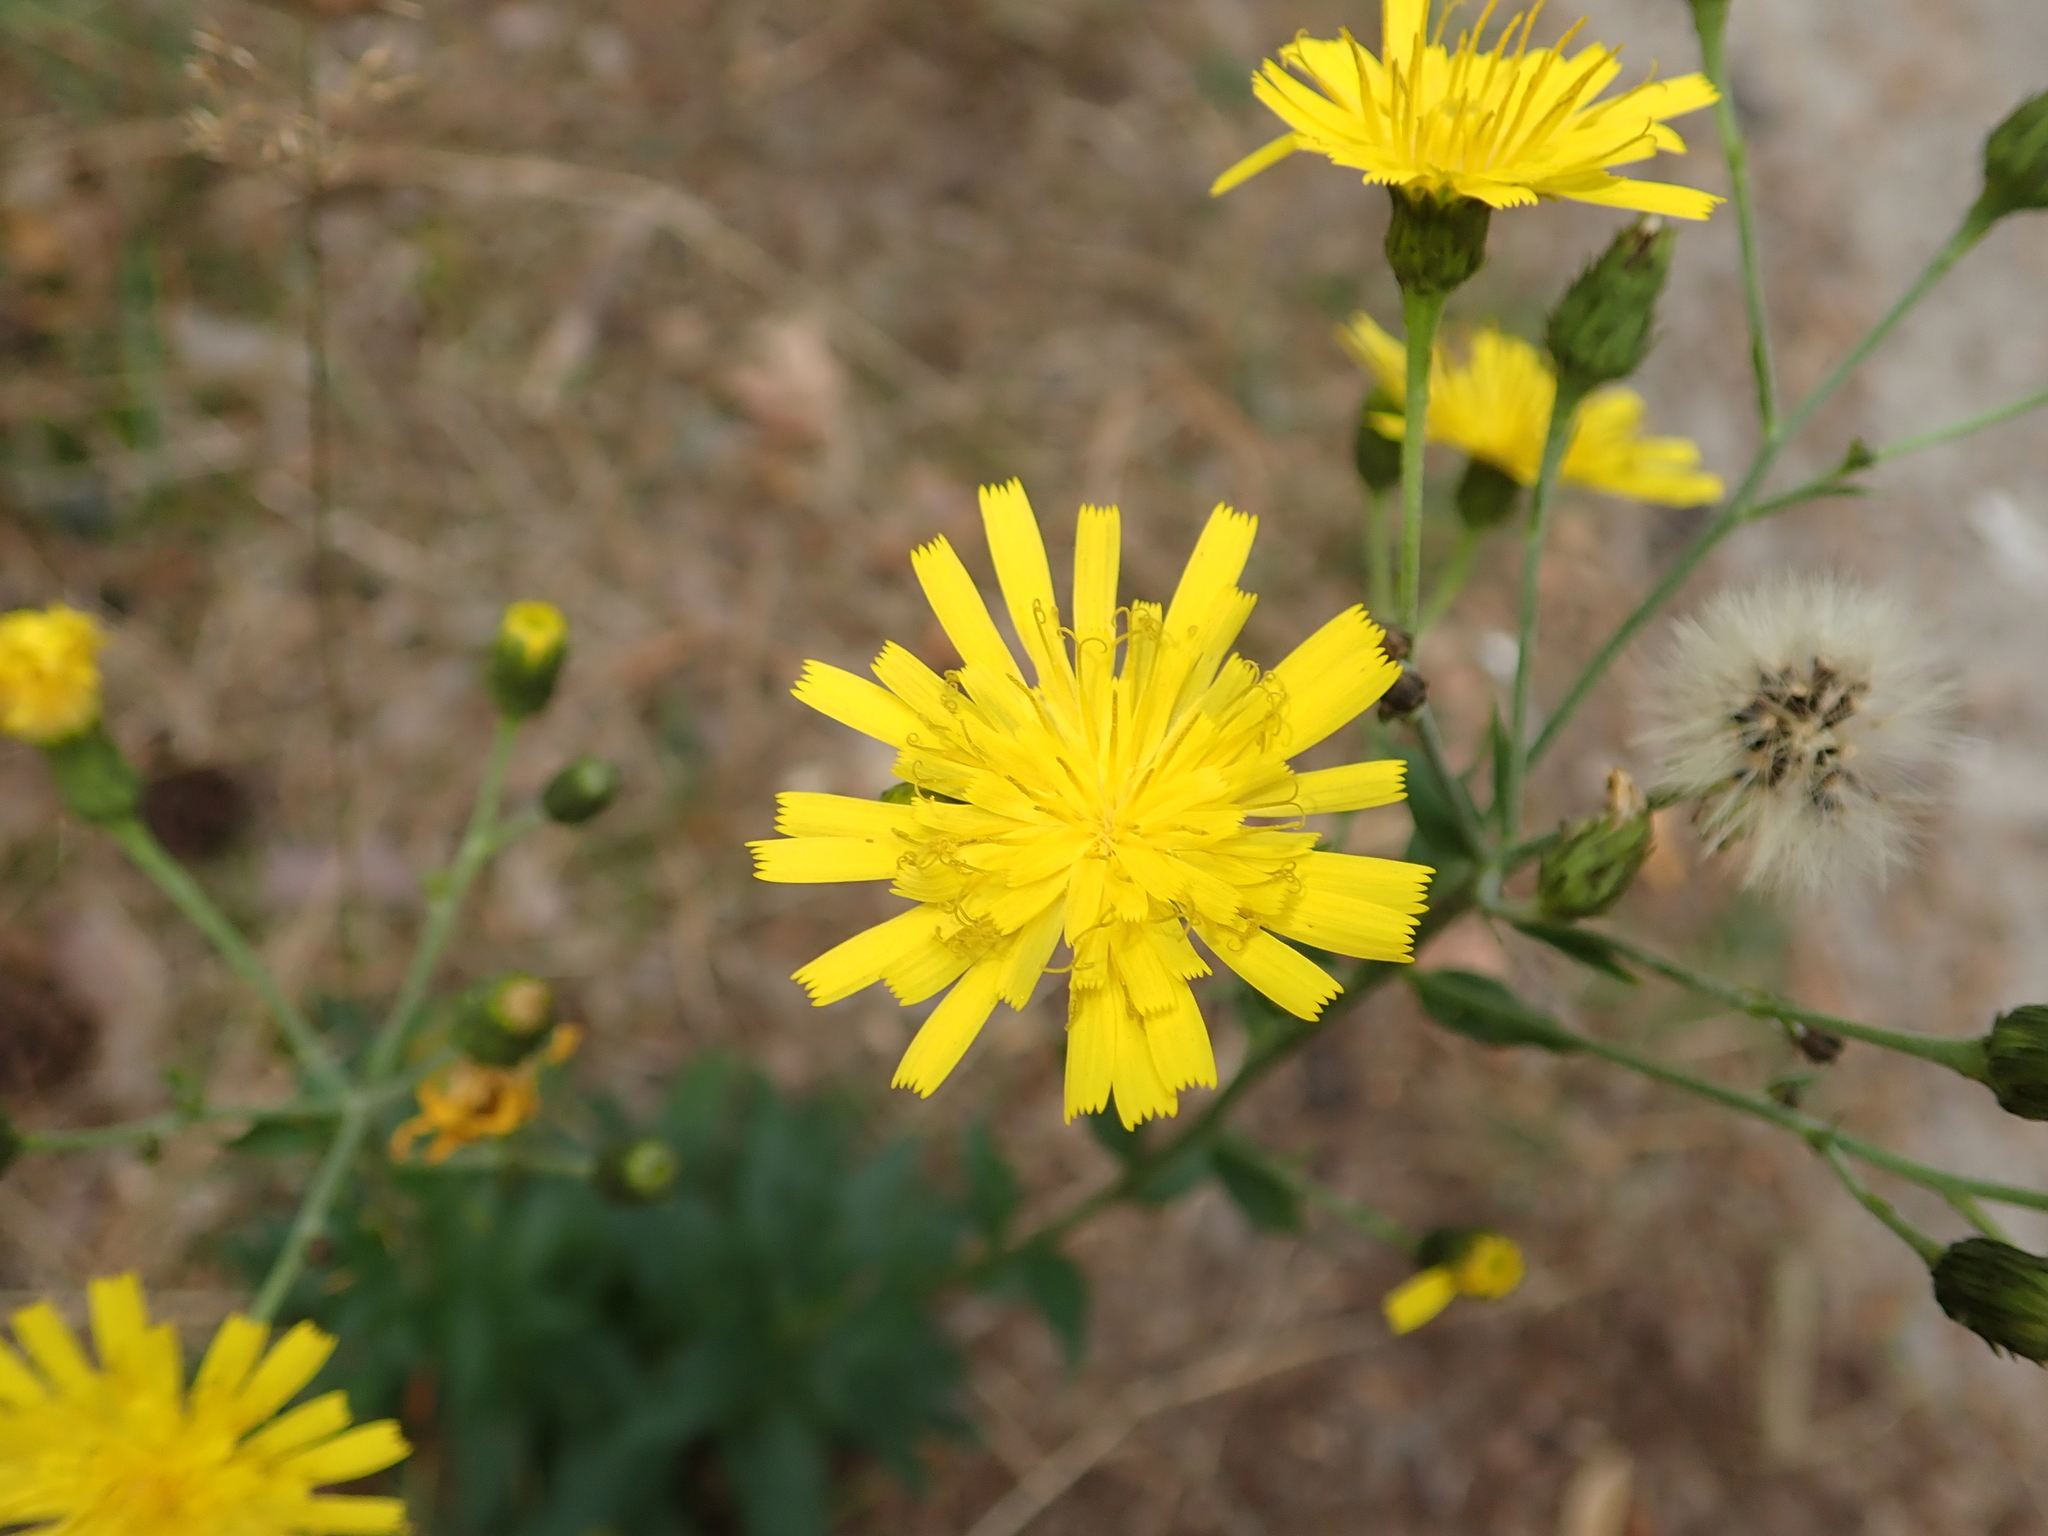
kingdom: Plantae
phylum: Tracheophyta
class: Magnoliopsida
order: Asterales
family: Asteraceae
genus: Hieracium
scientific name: Hieracium lachenalii
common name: Common hawkweed
